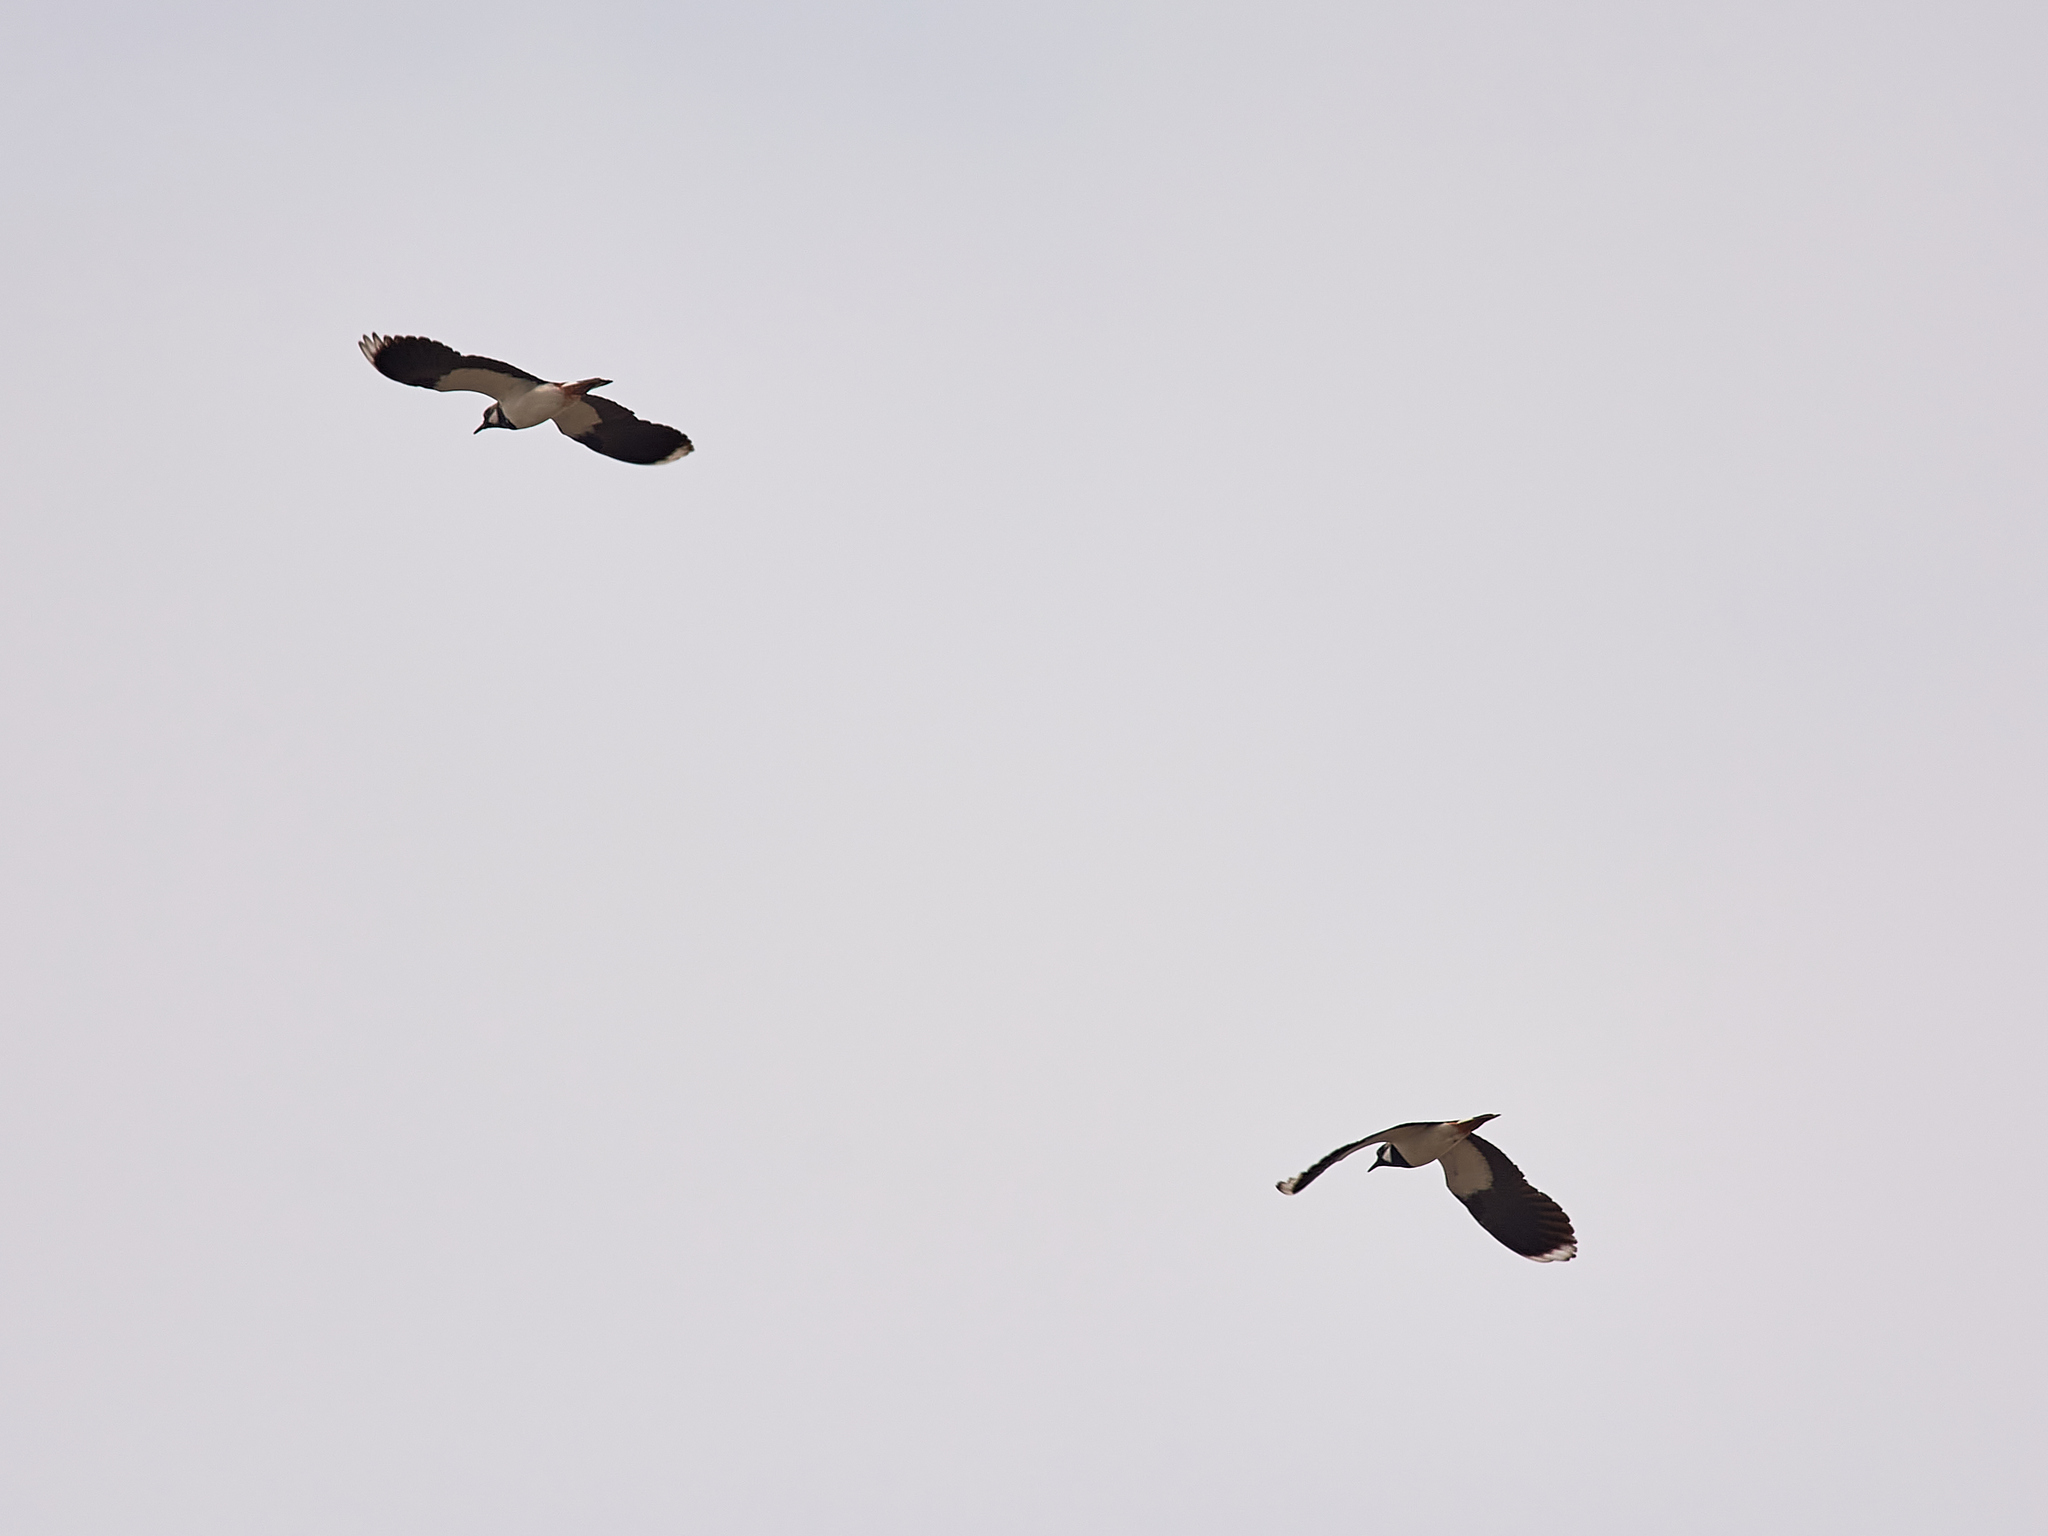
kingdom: Animalia
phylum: Chordata
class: Aves
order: Charadriiformes
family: Charadriidae
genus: Vanellus
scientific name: Vanellus vanellus
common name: Northern lapwing
